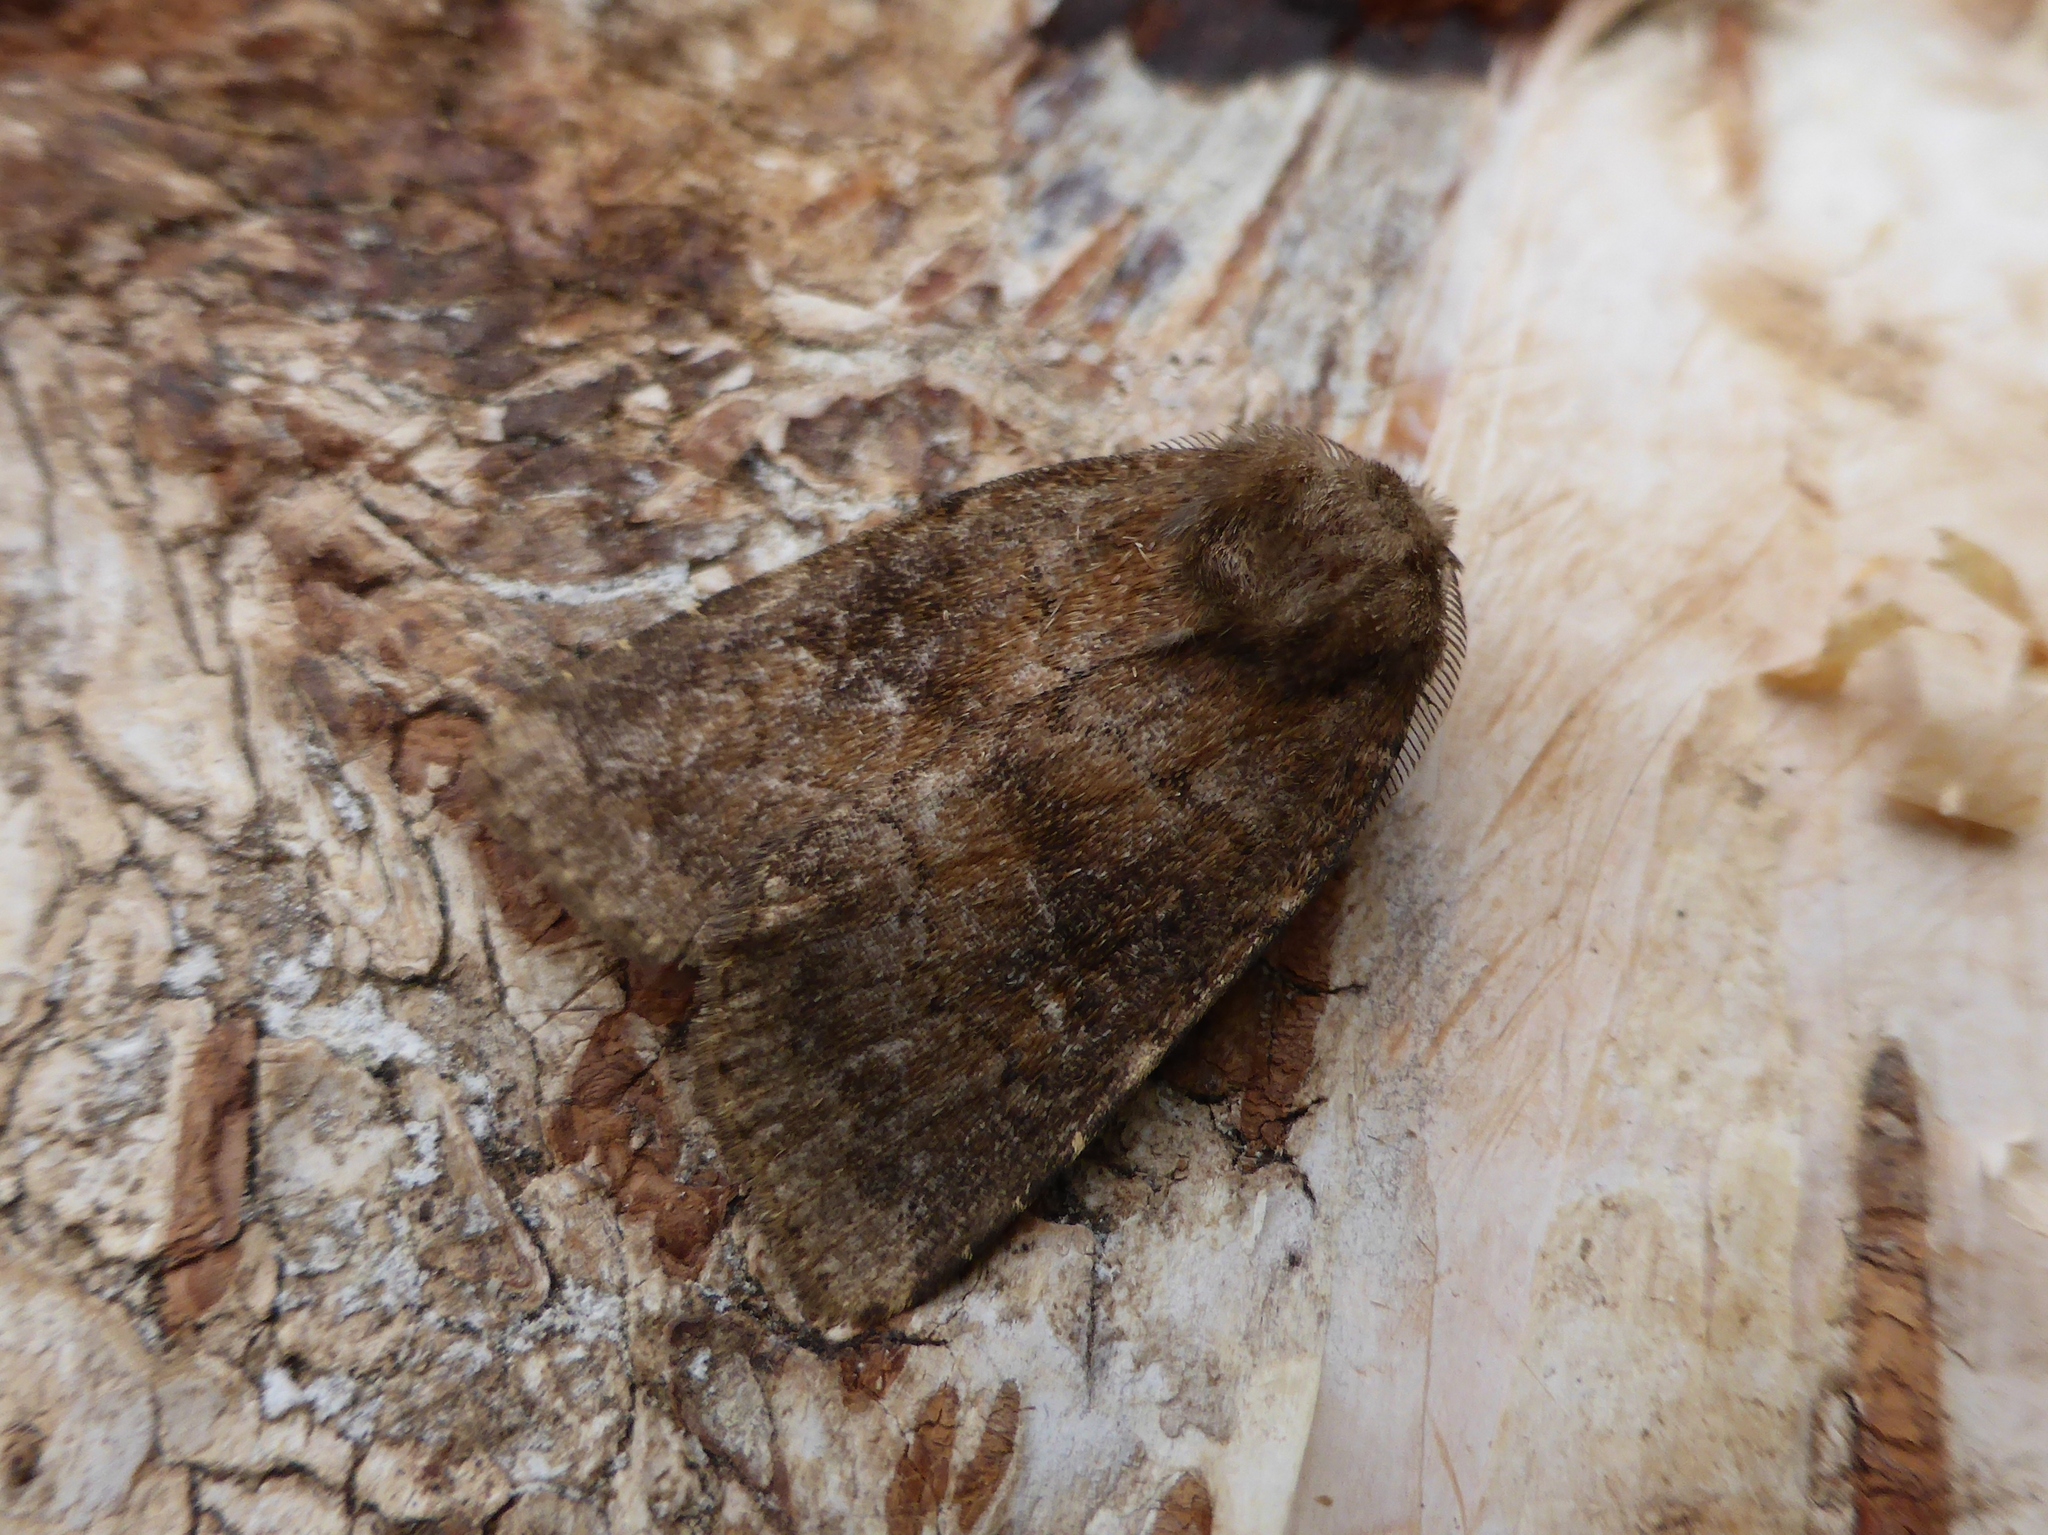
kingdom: Animalia
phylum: Arthropoda
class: Insecta
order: Lepidoptera
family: Noctuidae
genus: Charanyca
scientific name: Charanyca ferruginea
